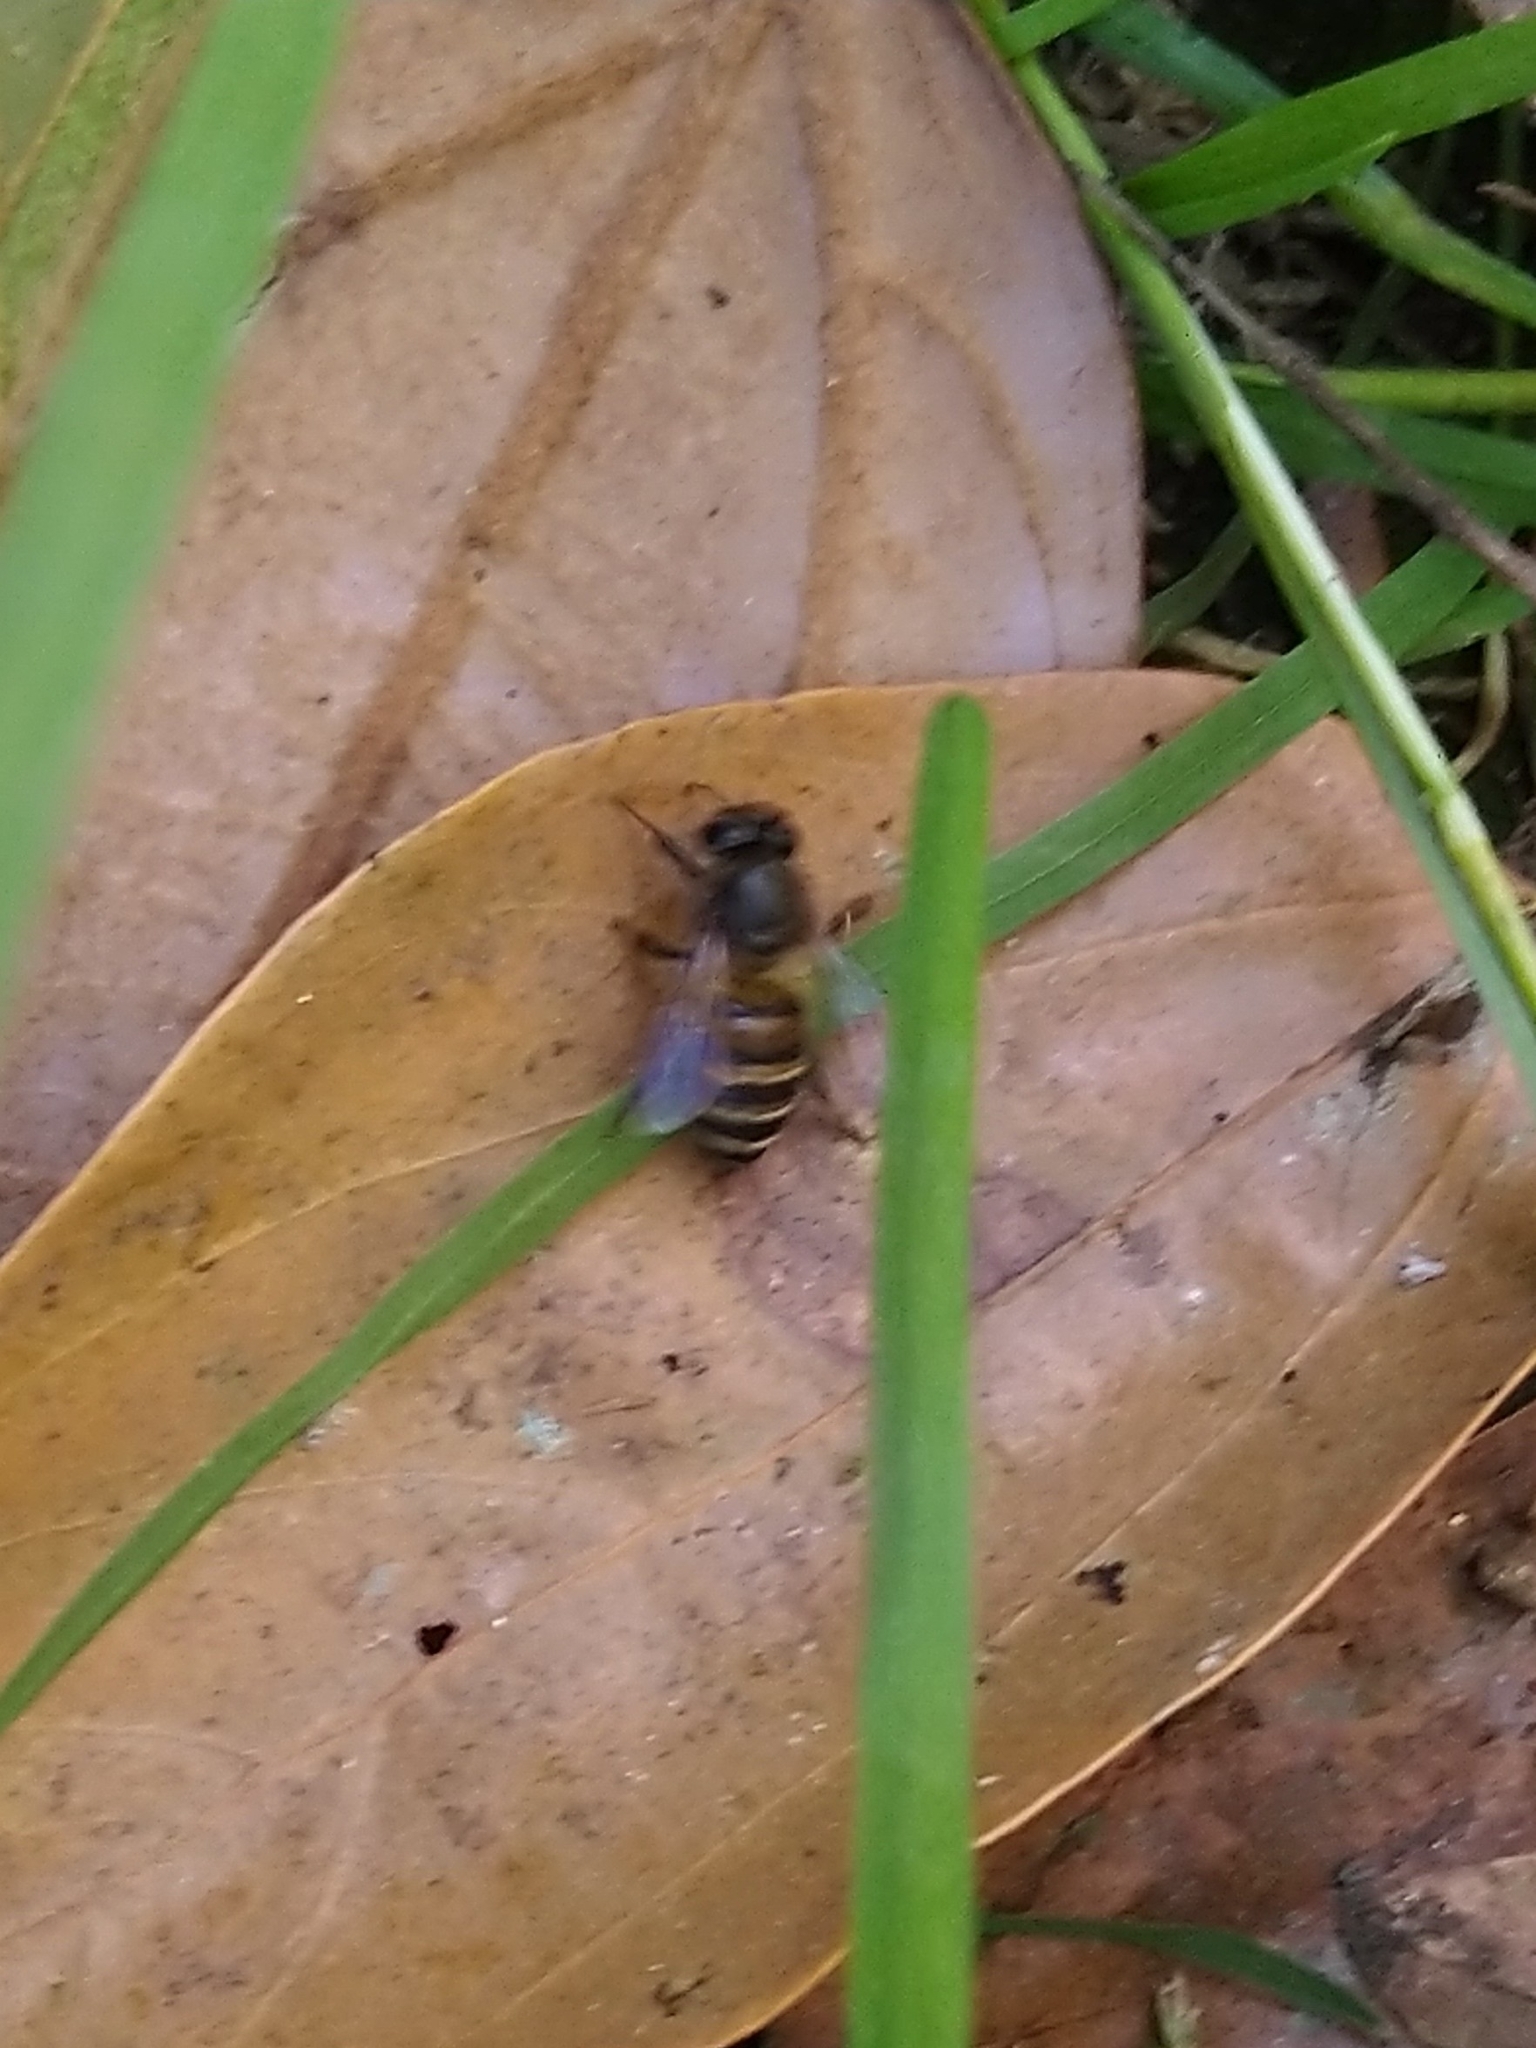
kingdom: Animalia
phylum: Arthropoda
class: Insecta
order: Hymenoptera
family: Apidae
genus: Apis
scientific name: Apis cerana
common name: Honey bee
